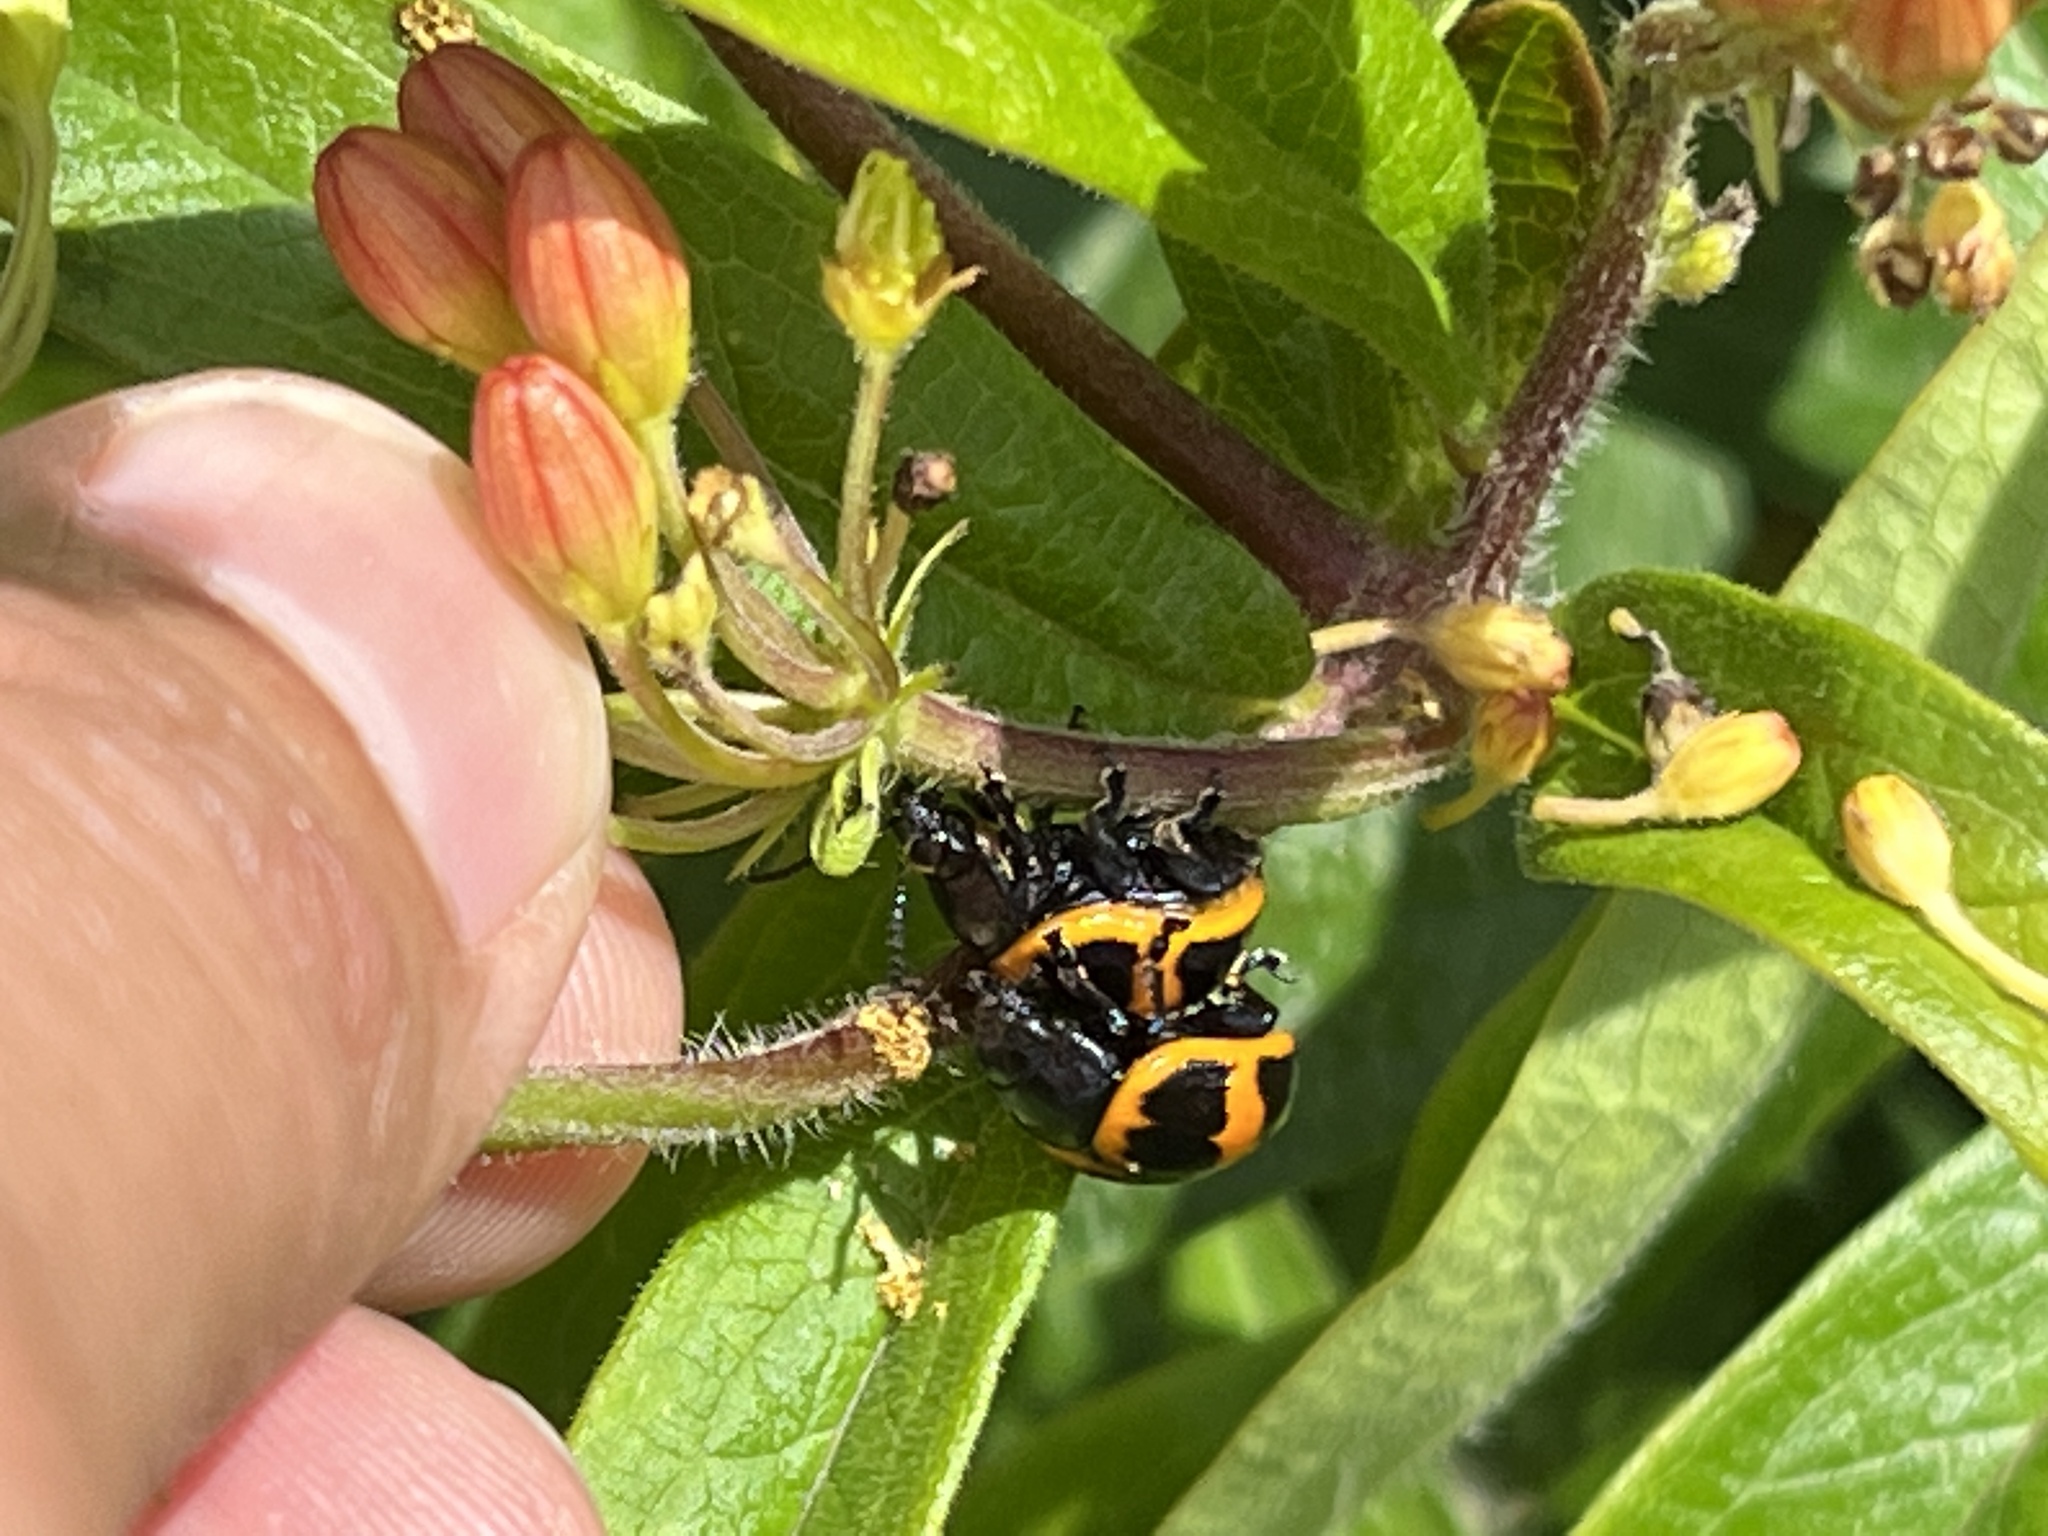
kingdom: Animalia
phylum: Arthropoda
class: Insecta
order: Coleoptera
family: Chrysomelidae
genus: Labidomera
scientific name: Labidomera clivicollis
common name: Swamp milkweed leaf beetle
